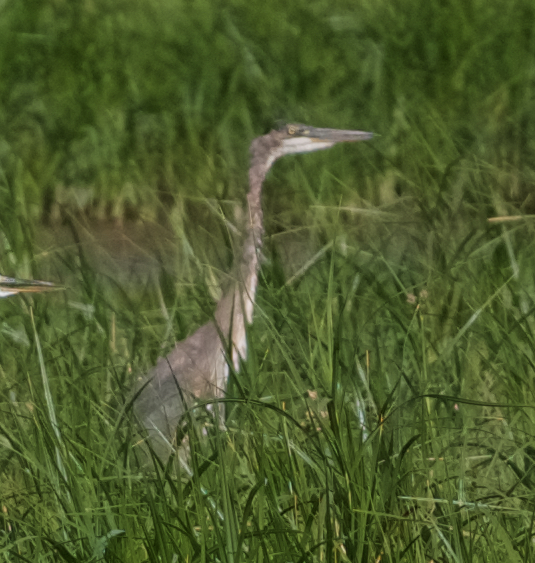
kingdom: Animalia
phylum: Chordata
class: Aves
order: Pelecaniformes
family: Ardeidae
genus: Ardea
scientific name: Ardea herodias
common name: Great blue heron
